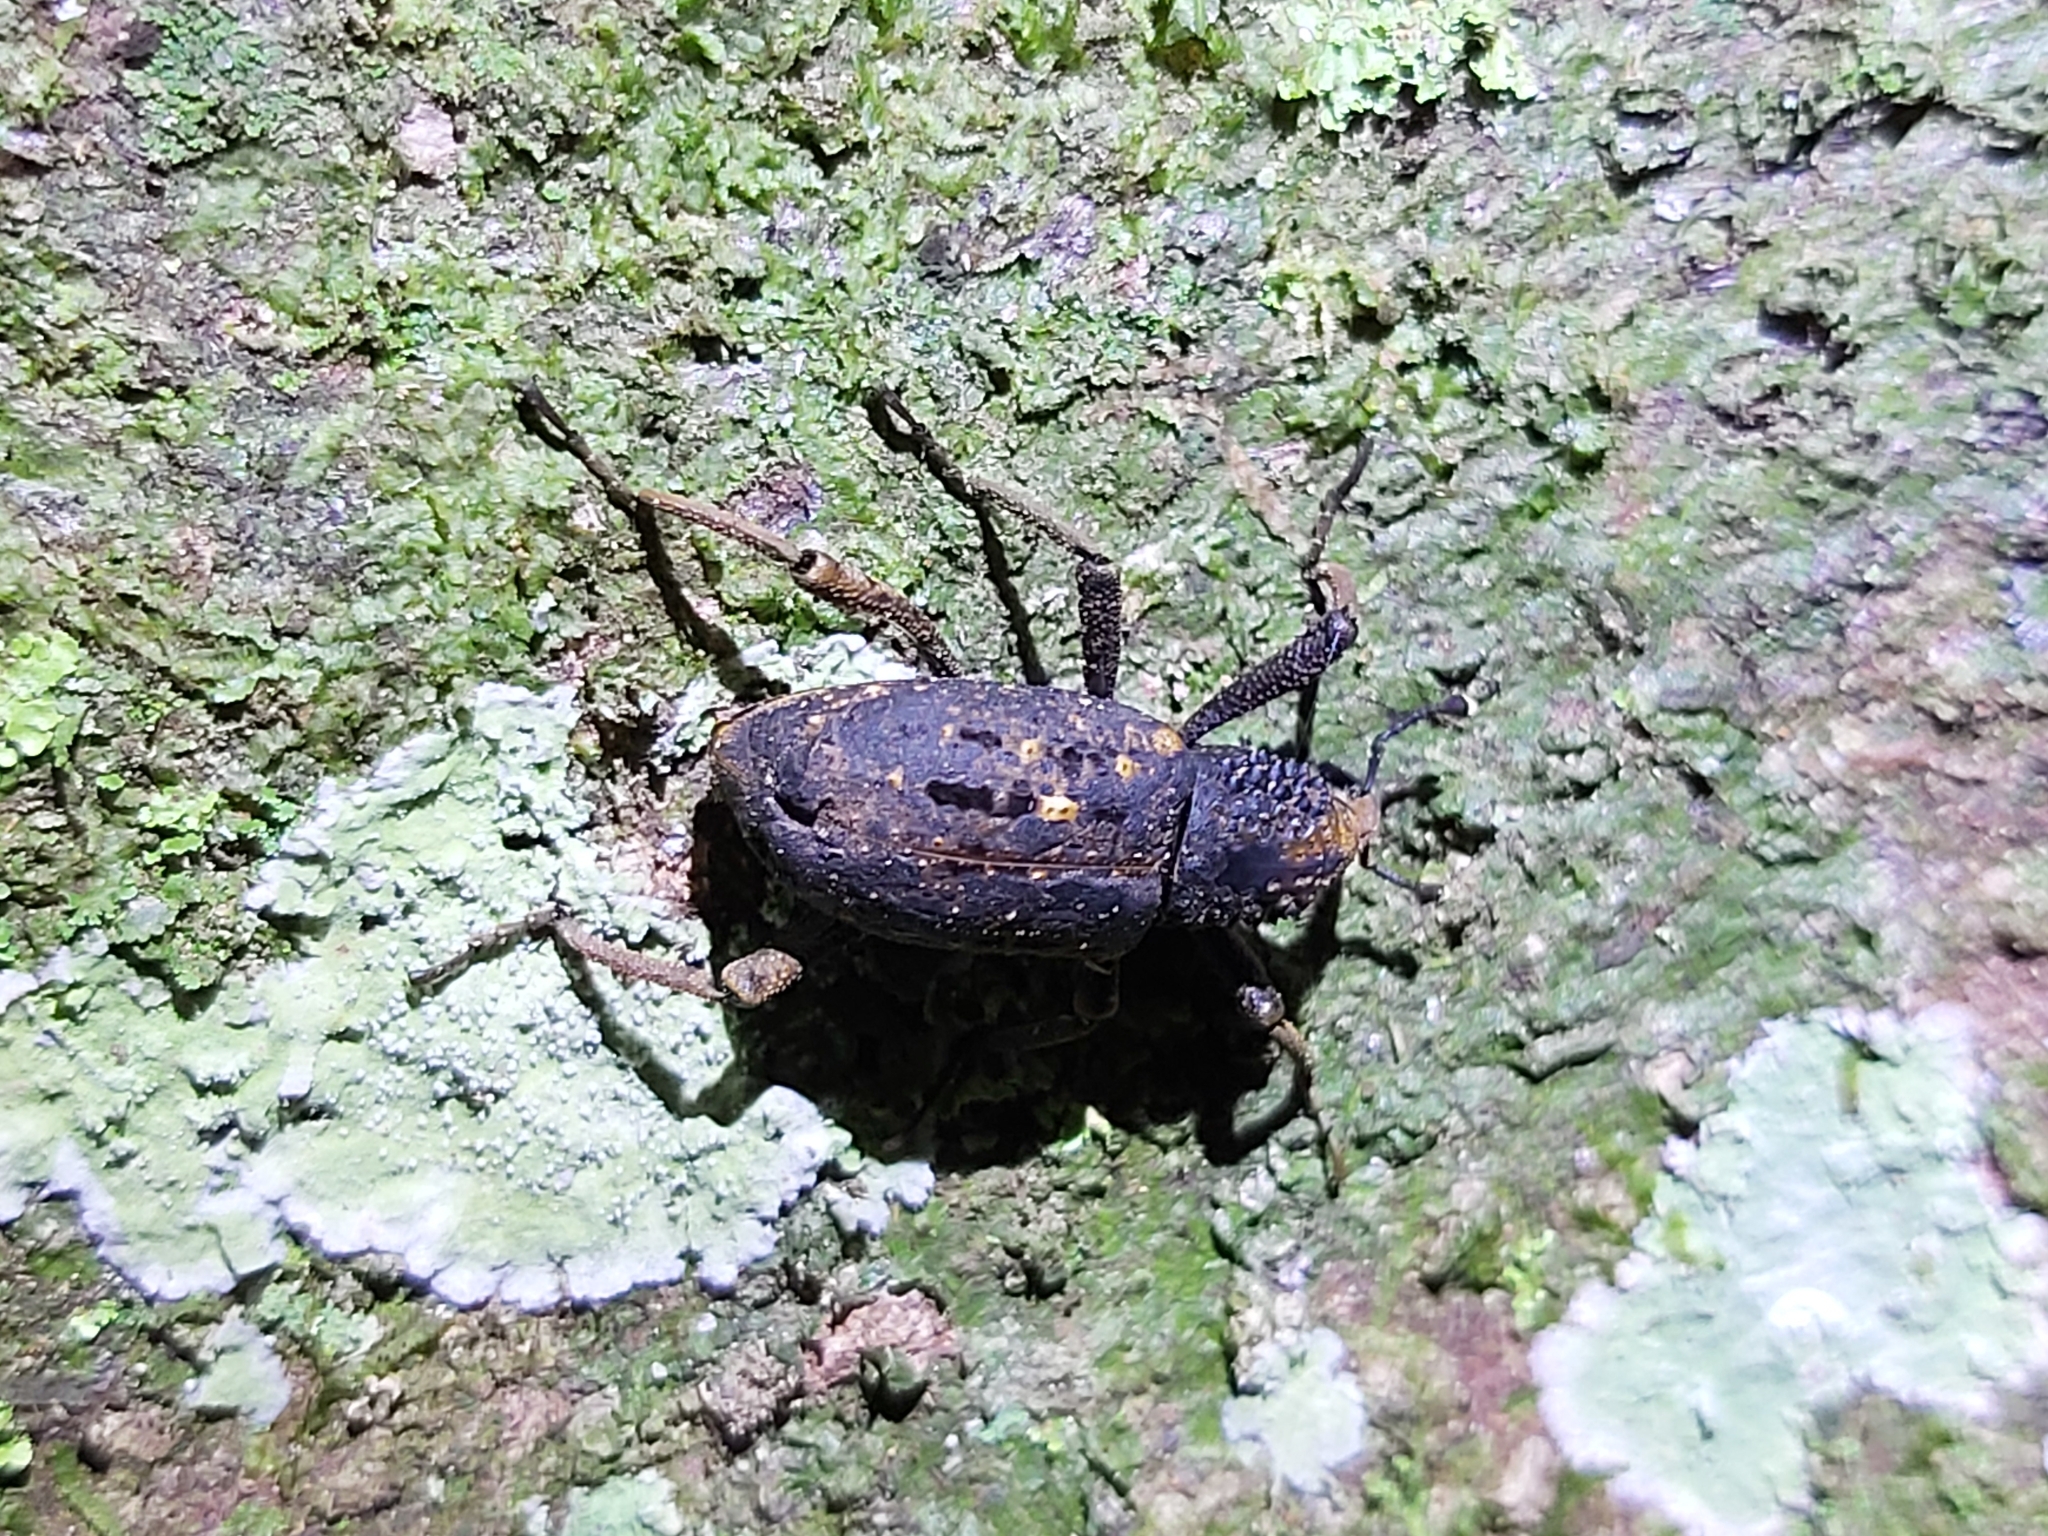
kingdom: Animalia
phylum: Arthropoda
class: Insecta
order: Coleoptera
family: Dryophthoridae
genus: Sipalinus
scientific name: Sipalinus gigas
